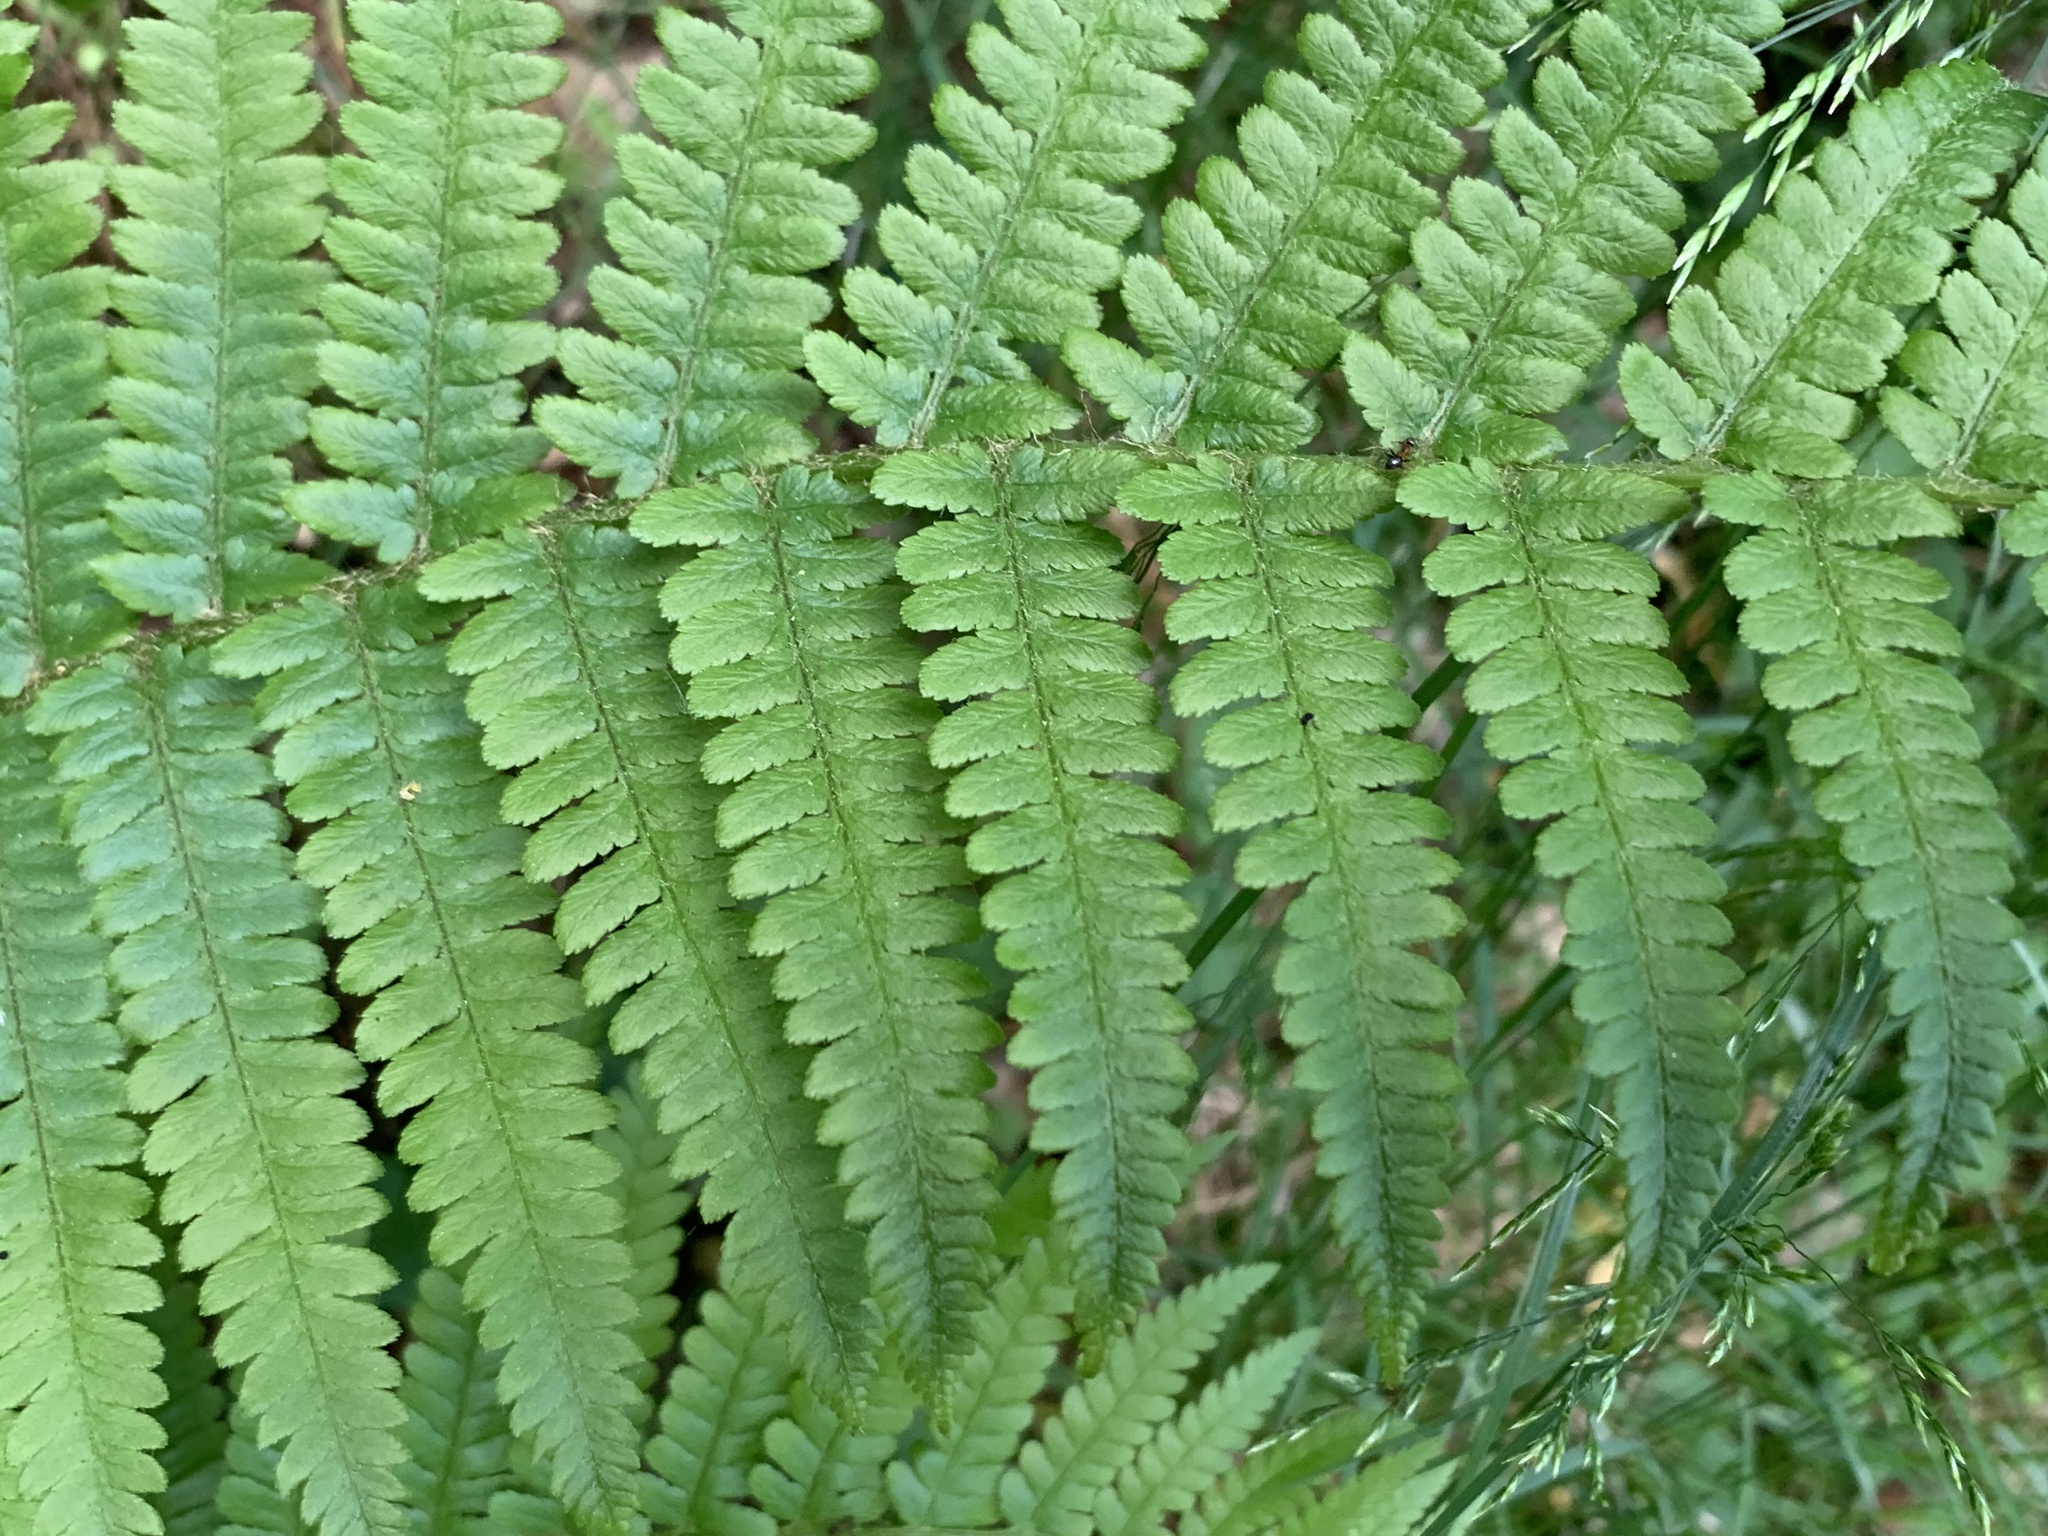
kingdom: Plantae
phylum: Tracheophyta
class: Polypodiopsida
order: Polypodiales
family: Dryopteridaceae
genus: Dryopteris
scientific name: Dryopteris filix-mas
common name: Male fern
